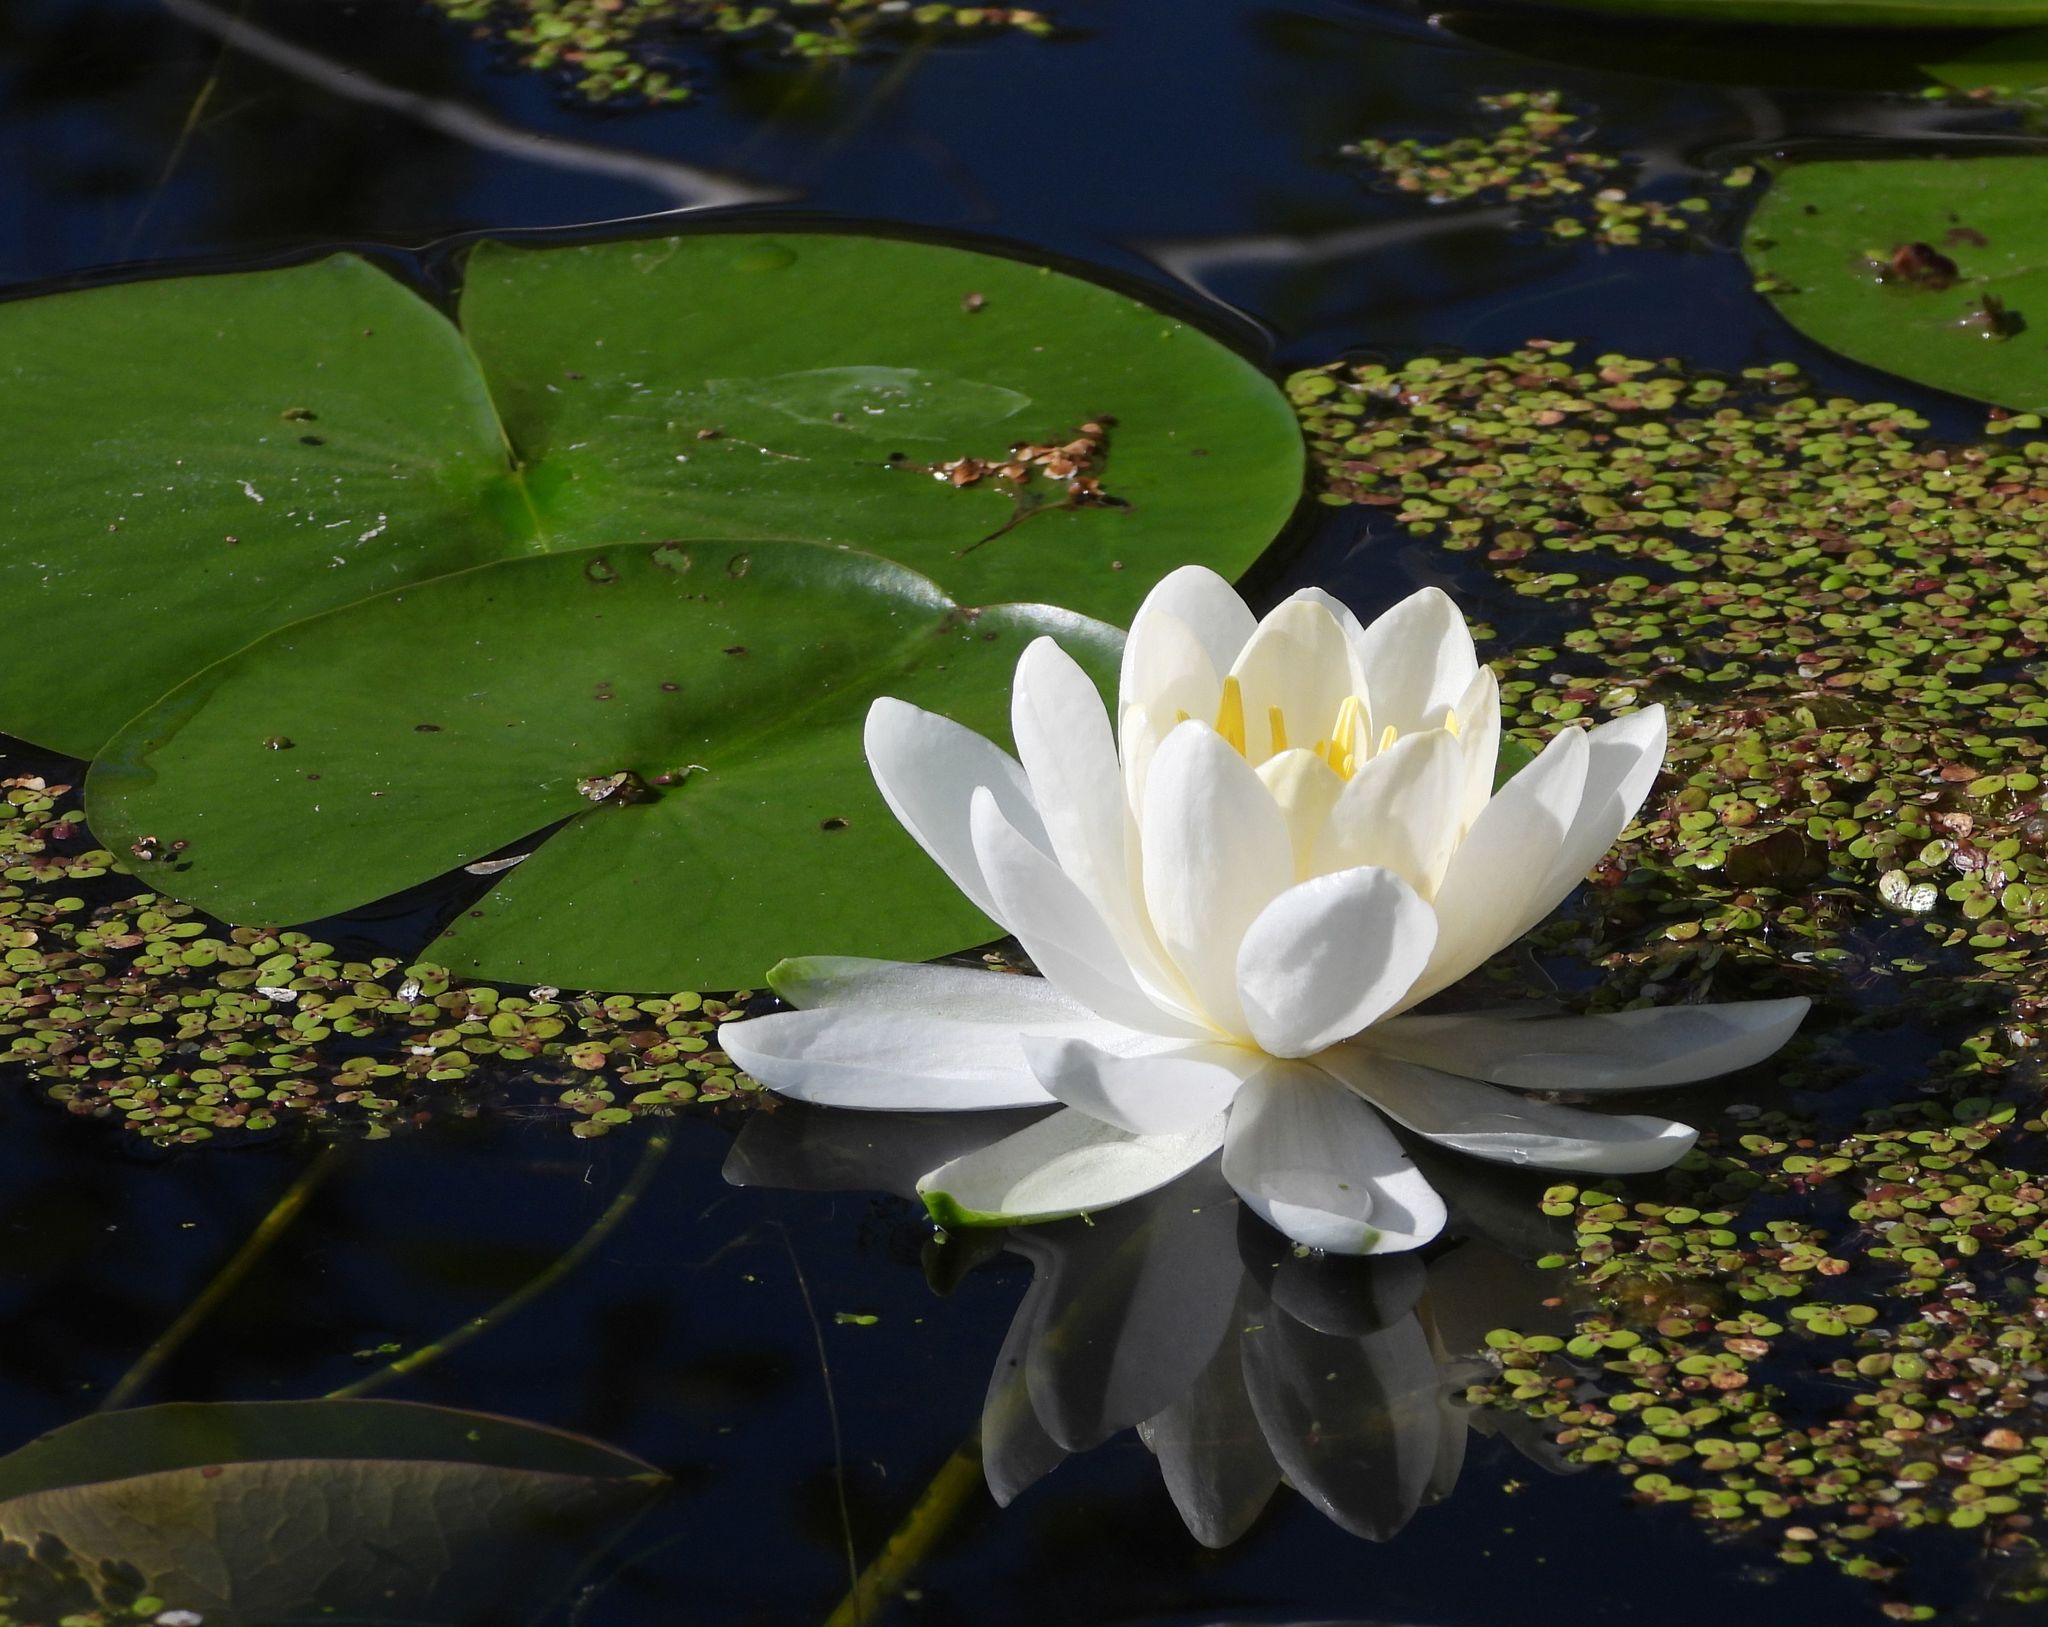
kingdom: Plantae
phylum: Tracheophyta
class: Magnoliopsida
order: Nymphaeales
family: Nymphaeaceae
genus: Nymphaea
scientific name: Nymphaea odorata
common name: Fragrant water-lily
